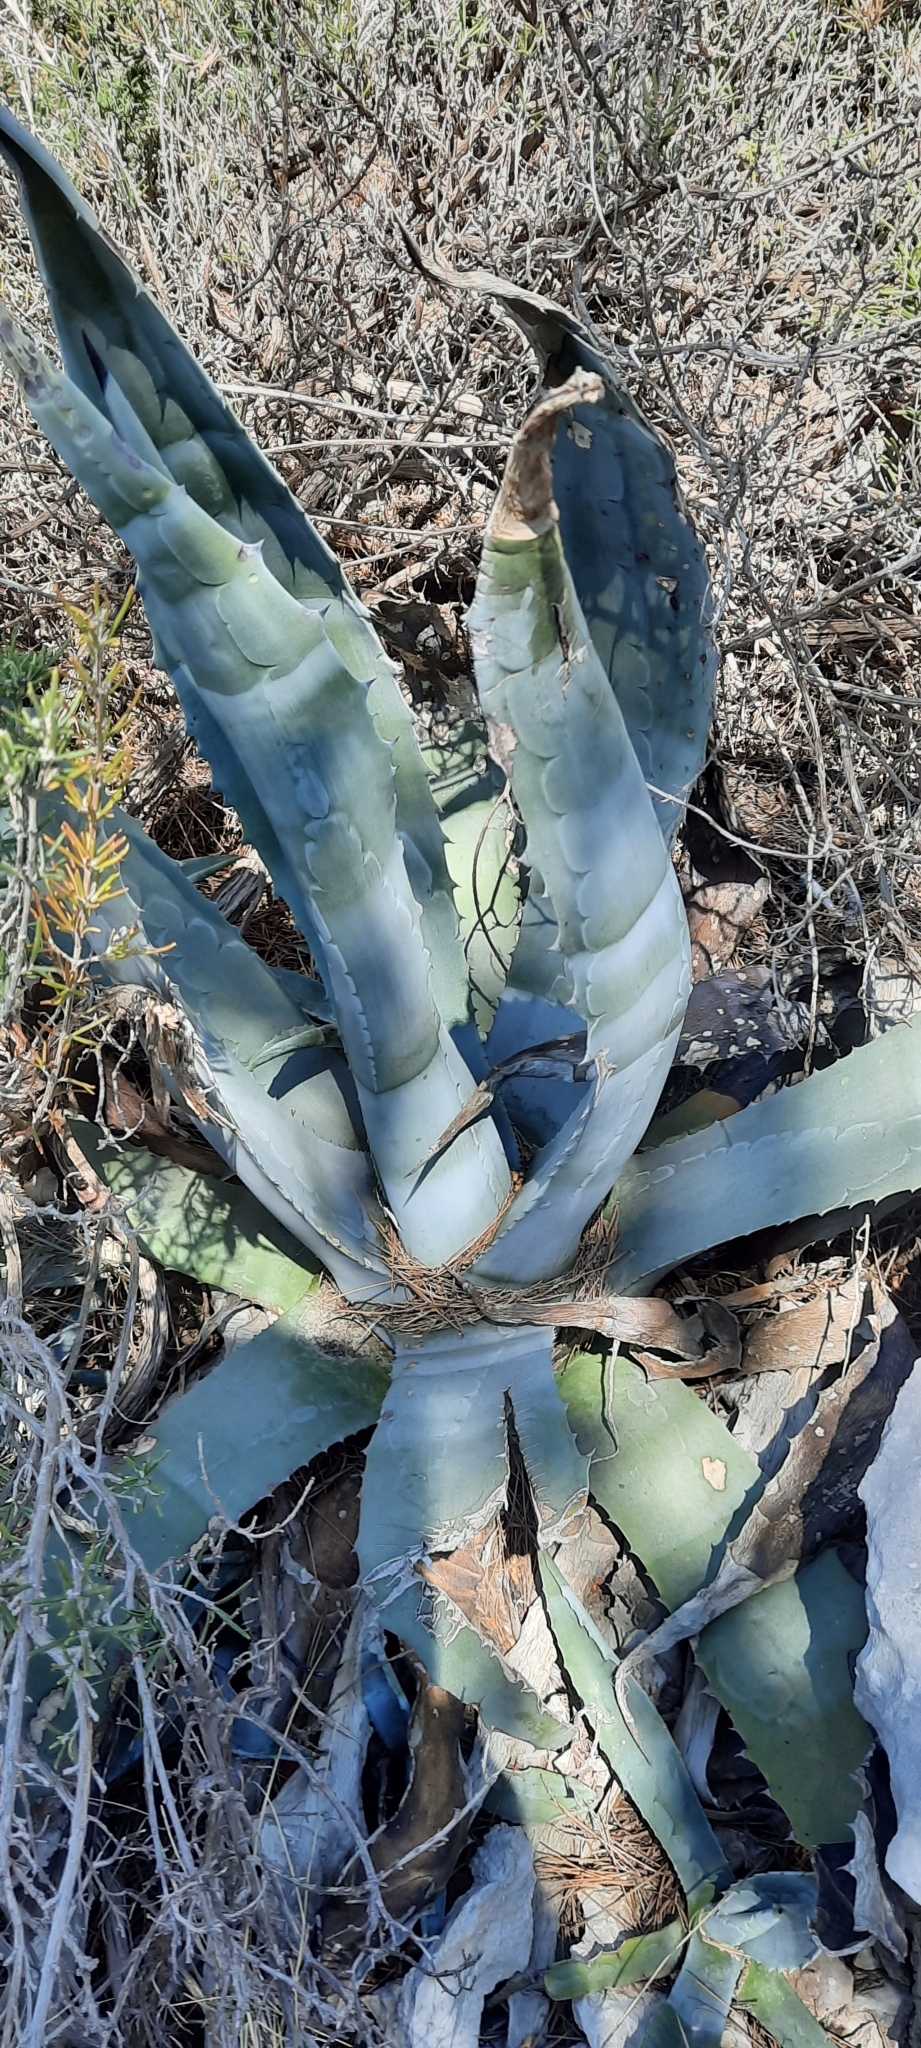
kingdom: Plantae
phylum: Tracheophyta
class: Liliopsida
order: Asparagales
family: Asparagaceae
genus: Agave
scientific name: Agave americana
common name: Centuryplant
